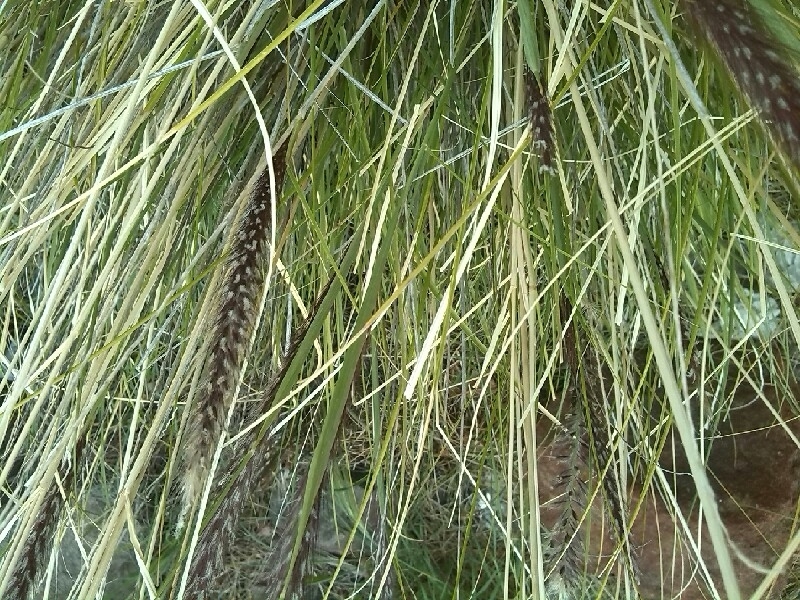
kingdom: Plantae
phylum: Tracheophyta
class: Liliopsida
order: Poales
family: Poaceae
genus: Cenchrus
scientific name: Cenchrus setaceus
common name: Crimson fountaingrass
